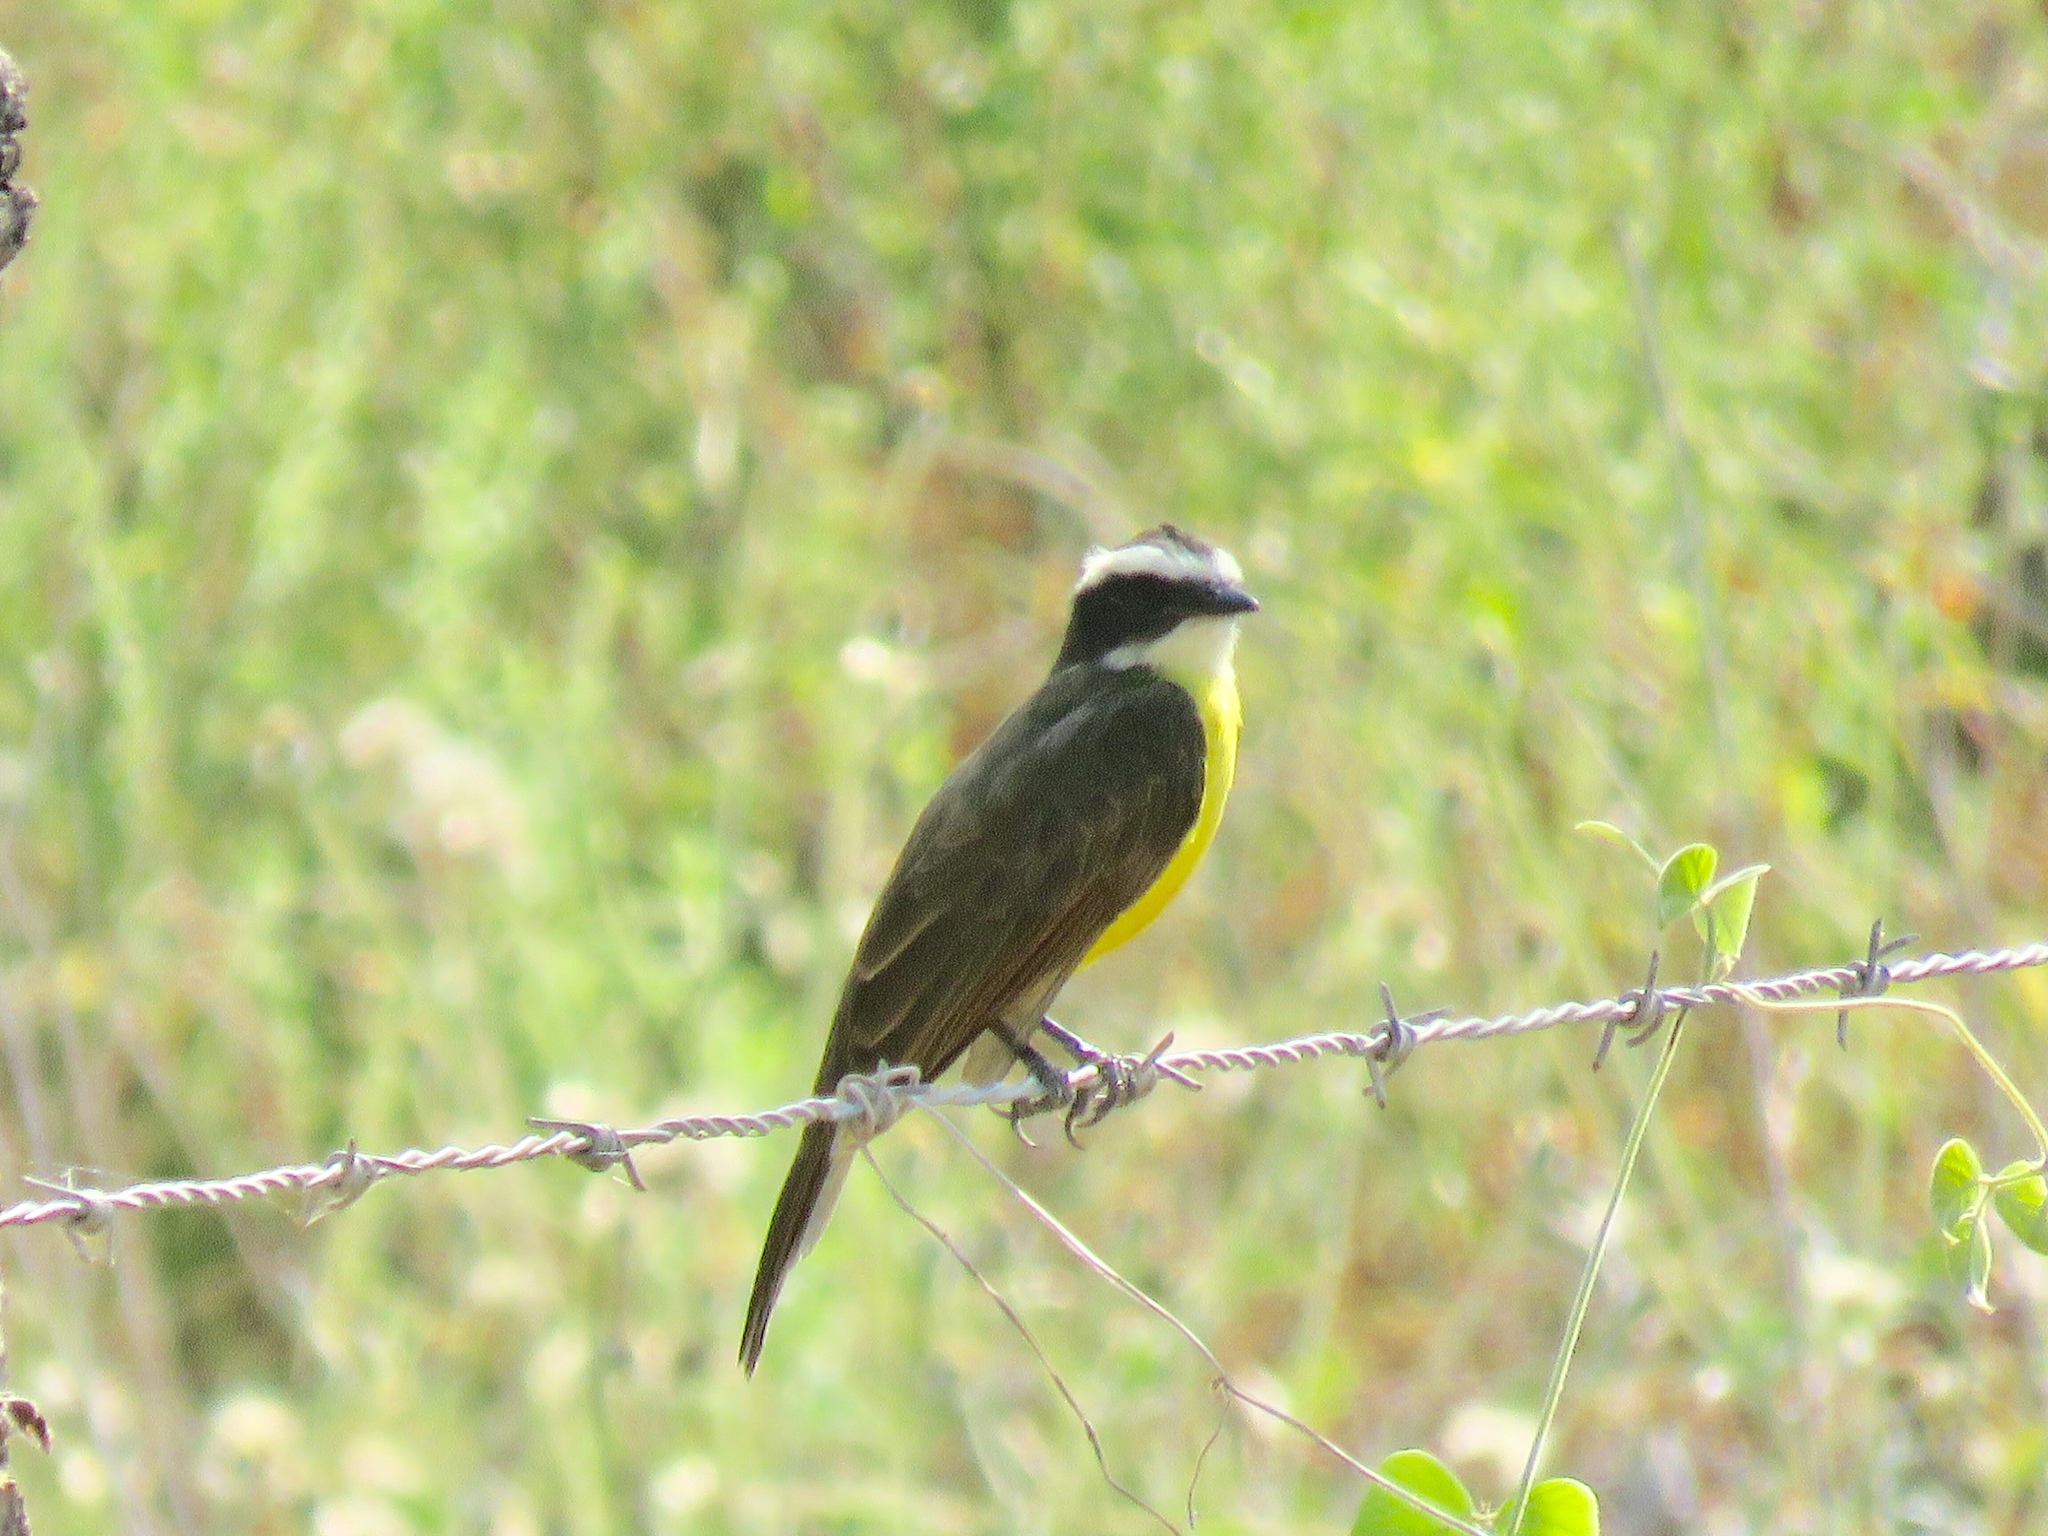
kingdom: Animalia
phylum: Chordata
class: Aves
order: Passeriformes
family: Tyrannidae
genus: Myiozetetes
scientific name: Myiozetetes cayanensis
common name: Rusty-margined flycatcher
